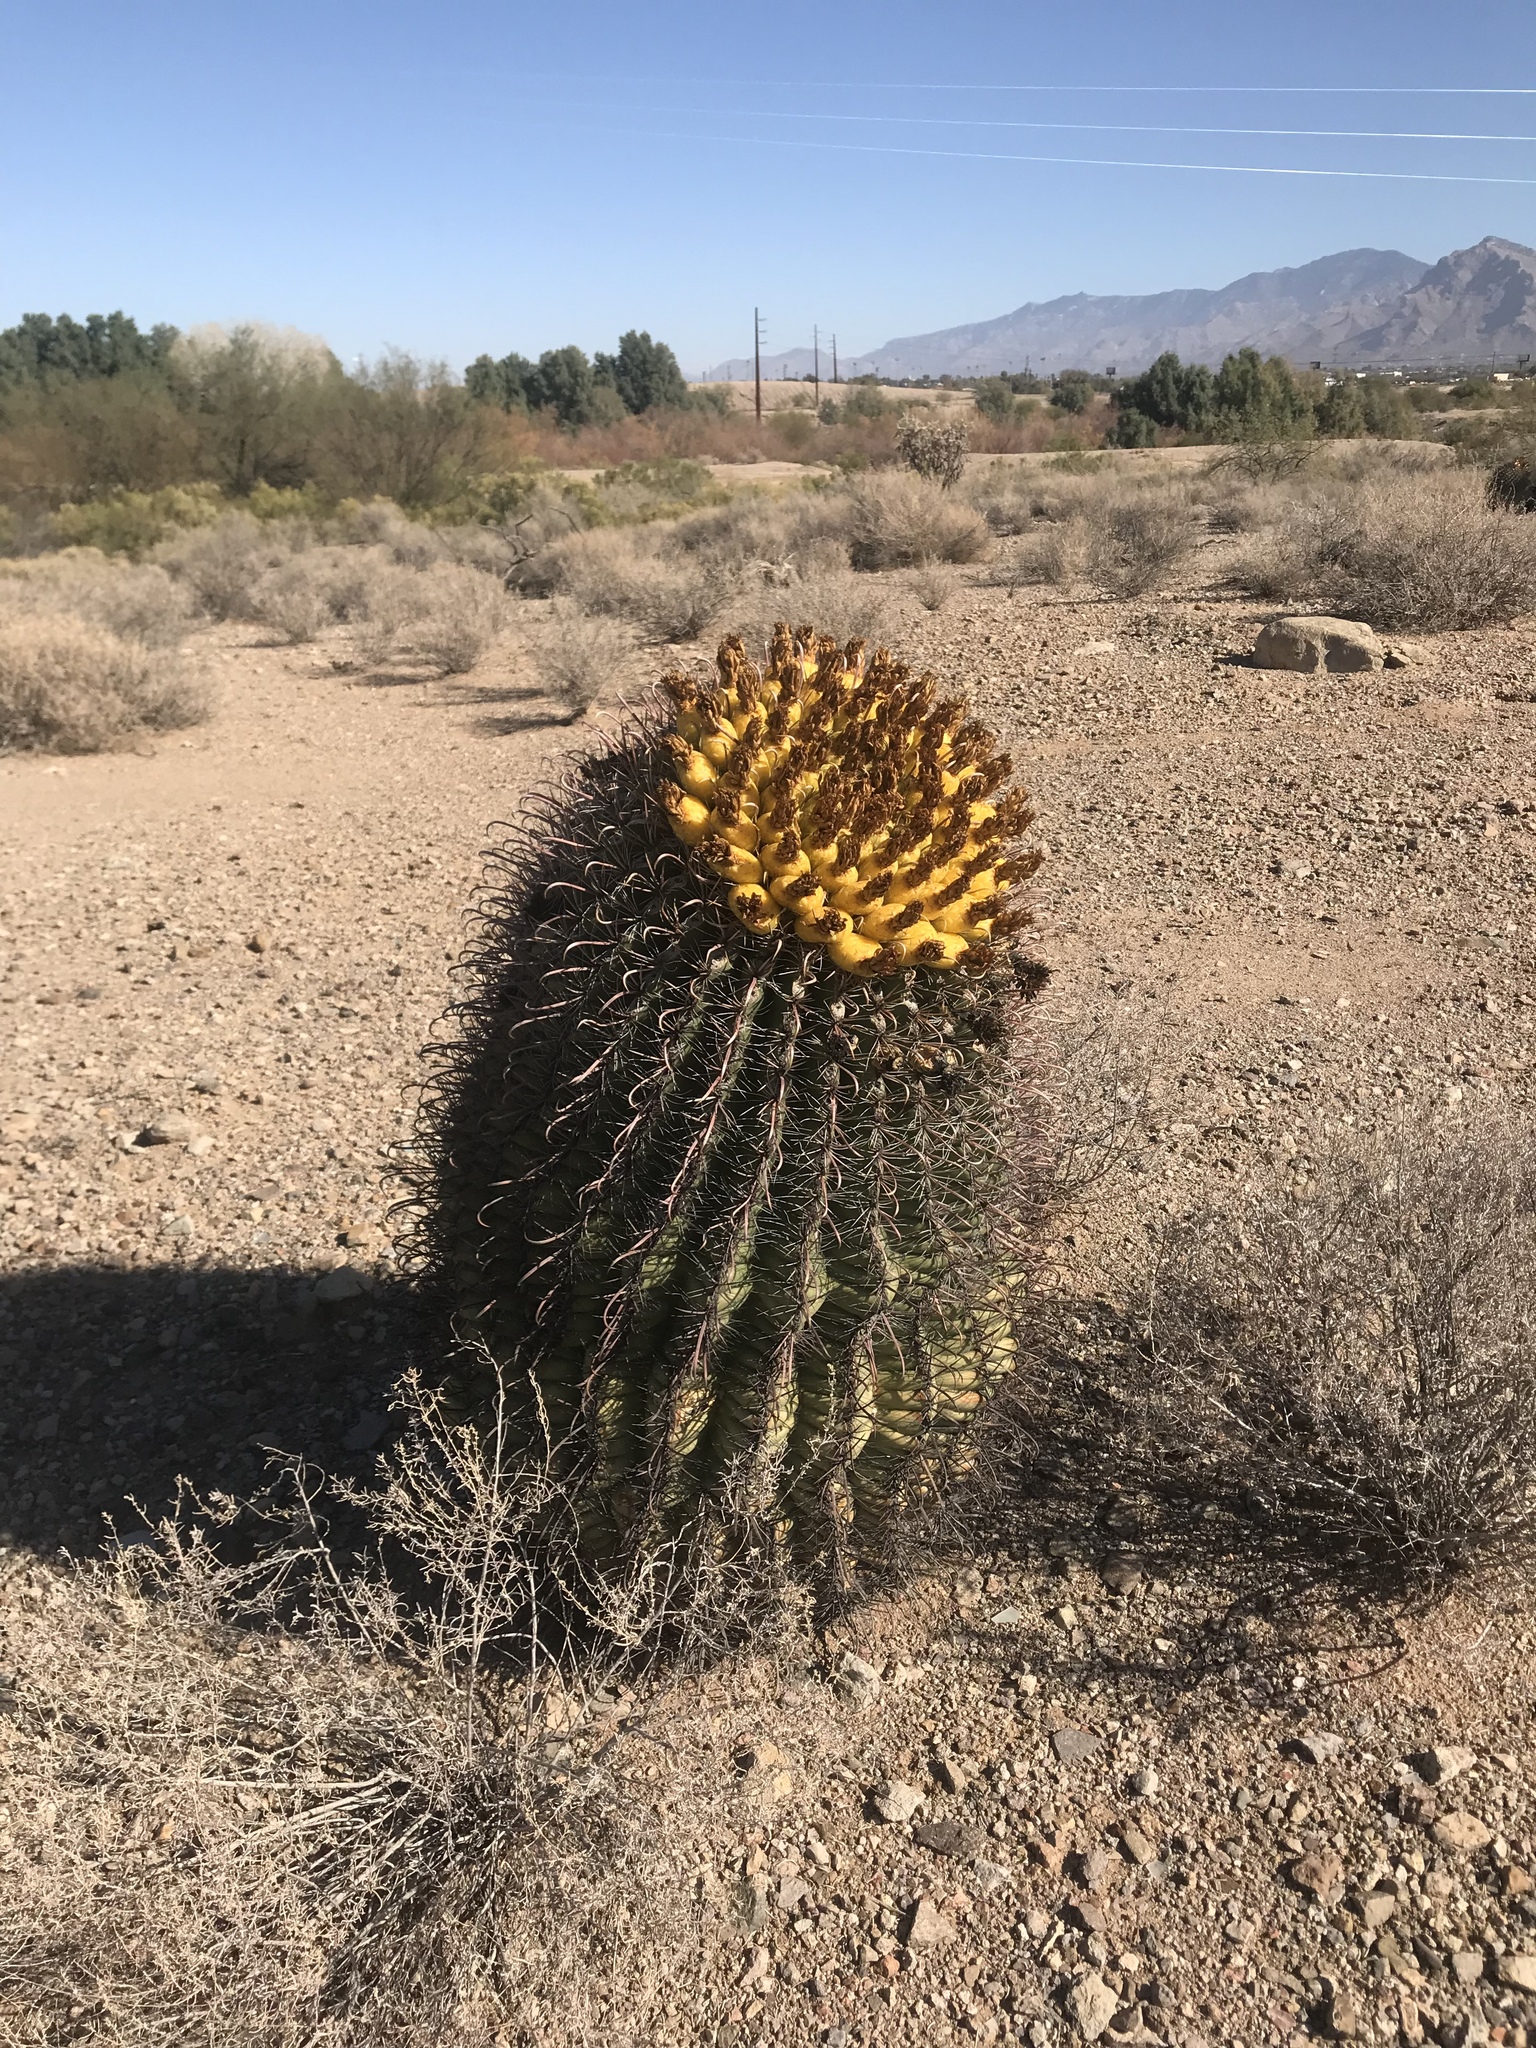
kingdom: Plantae
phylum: Tracheophyta
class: Magnoliopsida
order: Caryophyllales
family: Cactaceae
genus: Ferocactus
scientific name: Ferocactus wislizeni
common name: Candy barrel cactus
